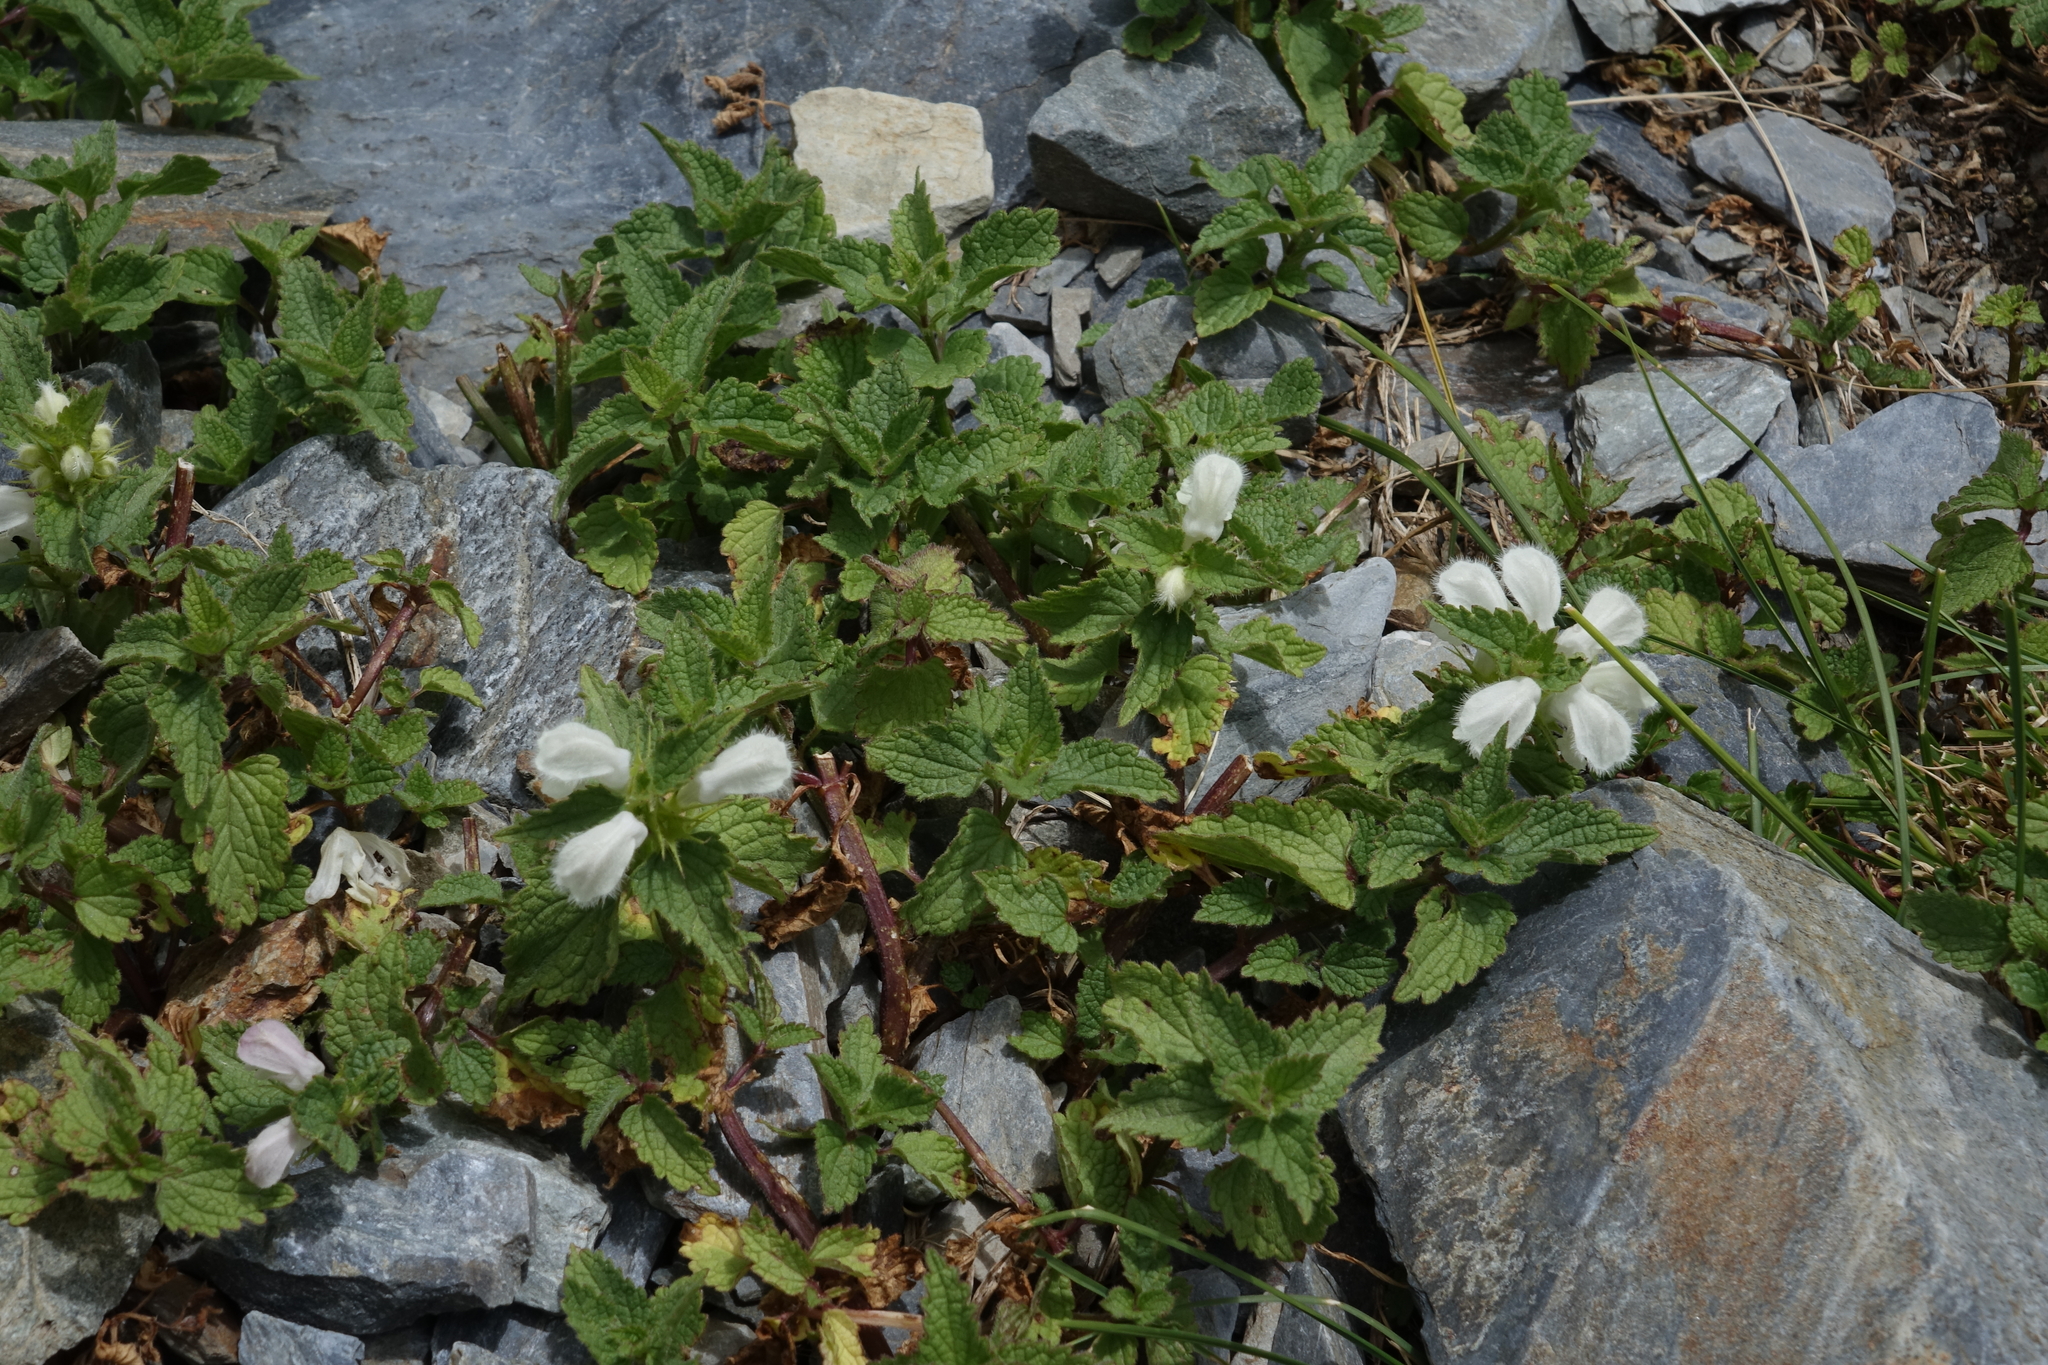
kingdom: Plantae
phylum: Tracheophyta
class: Magnoliopsida
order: Lamiales
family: Lamiaceae
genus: Lamium
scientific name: Lamium album
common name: White dead-nettle
